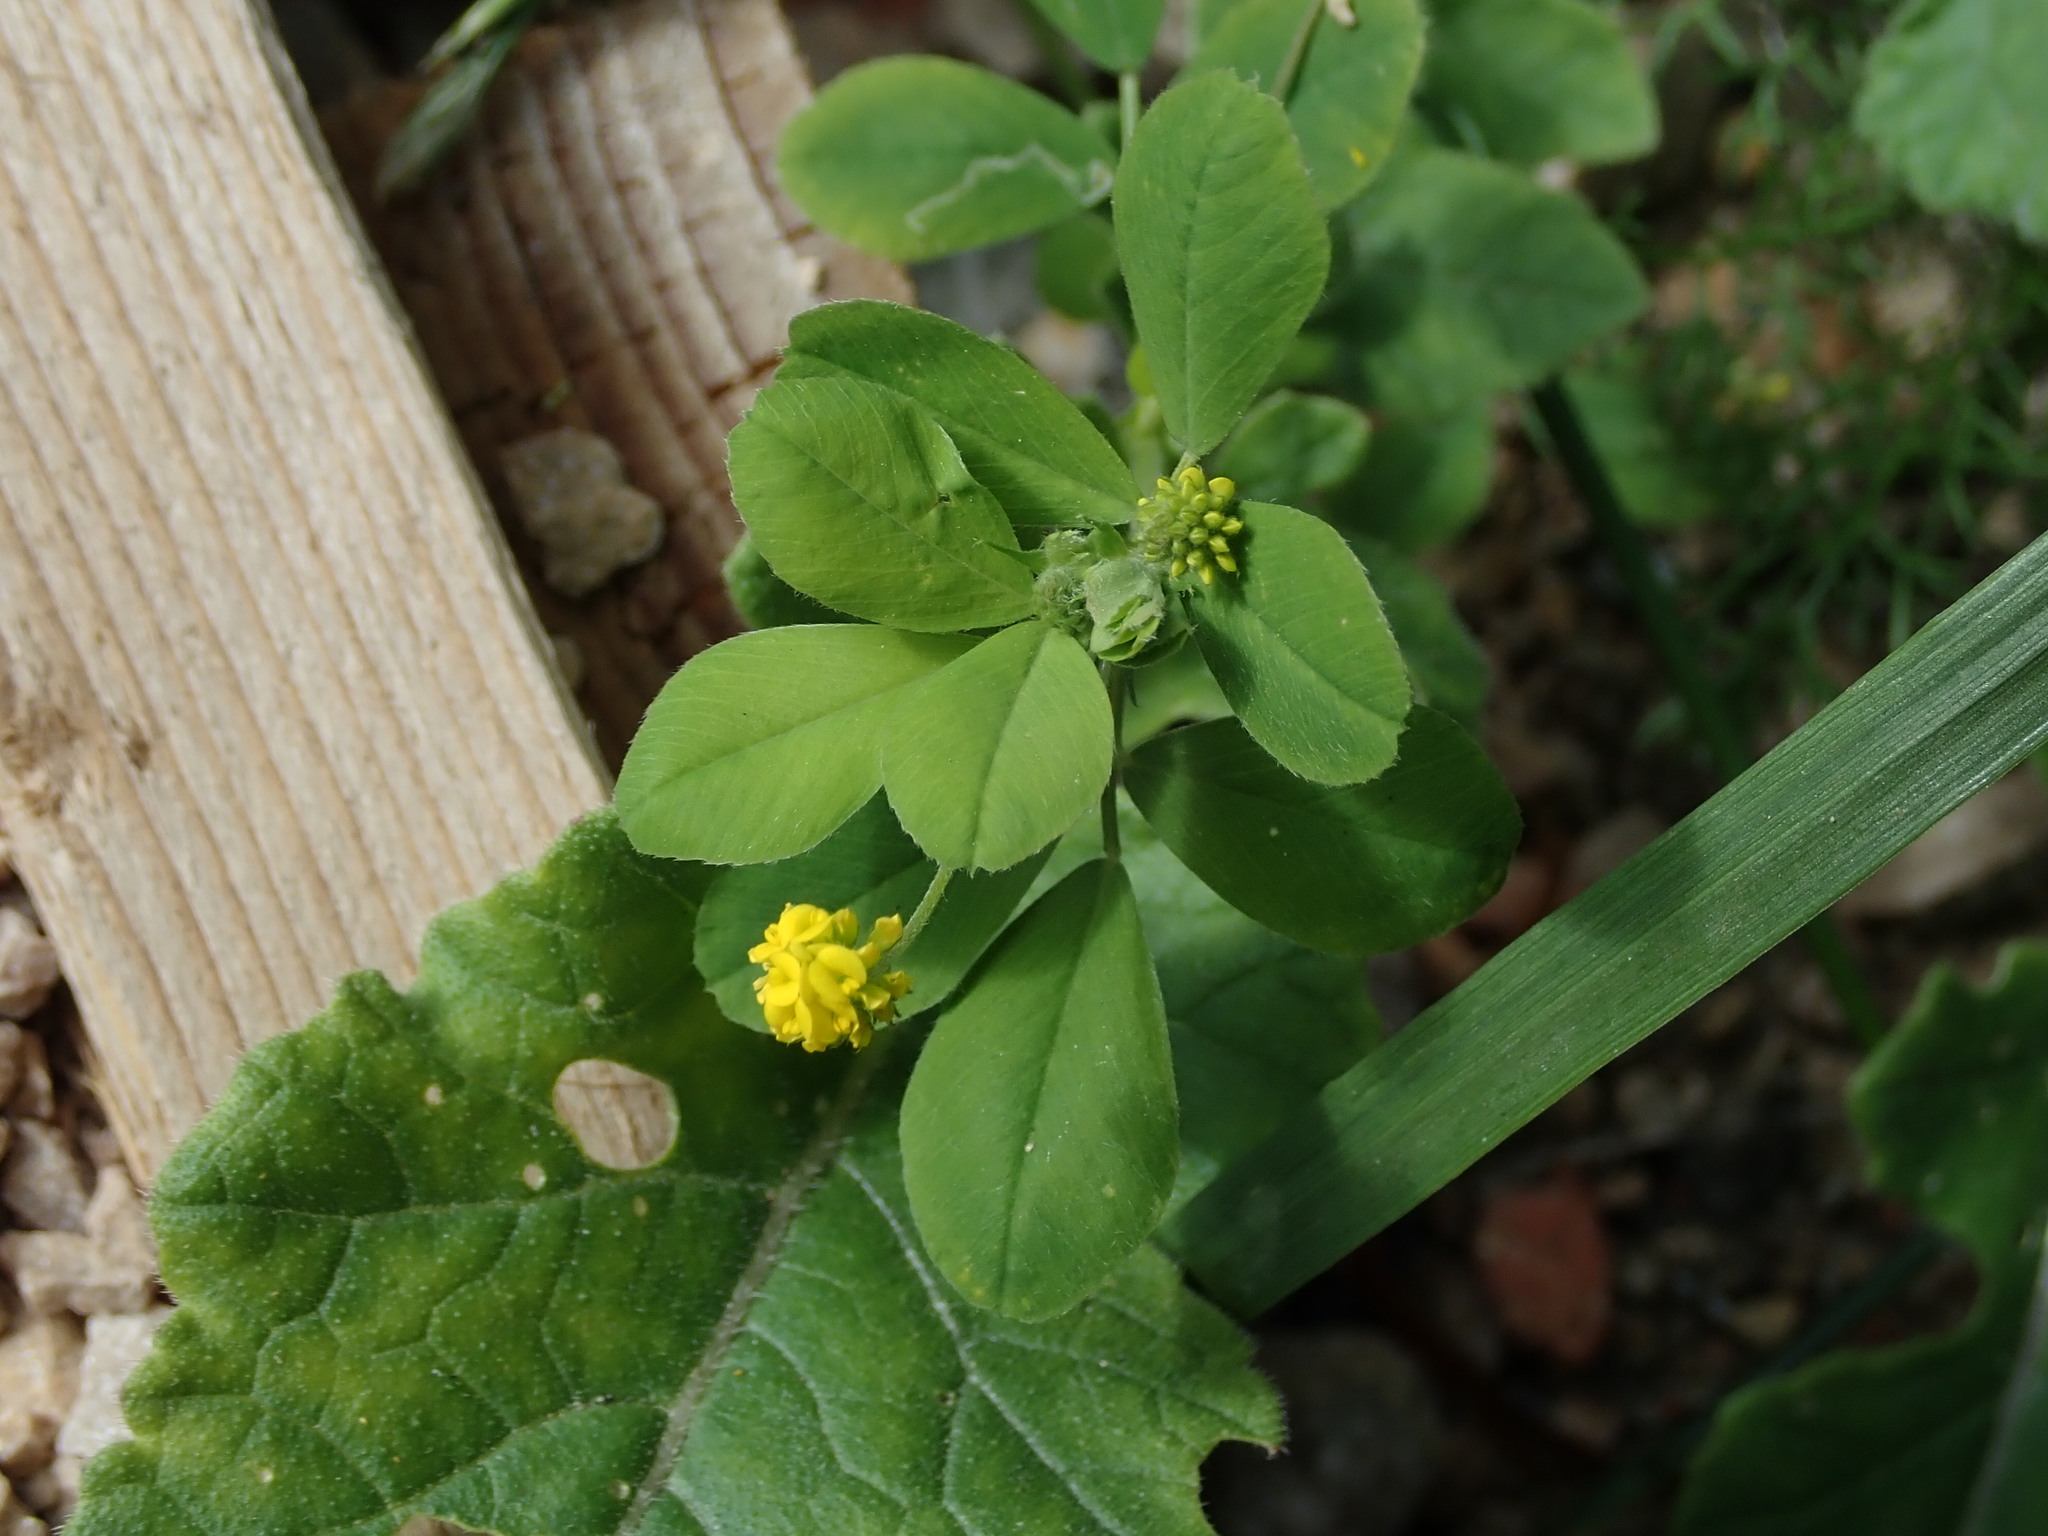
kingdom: Plantae
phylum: Tracheophyta
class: Magnoliopsida
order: Fabales
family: Fabaceae
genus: Medicago
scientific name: Medicago lupulina
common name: Black medick
